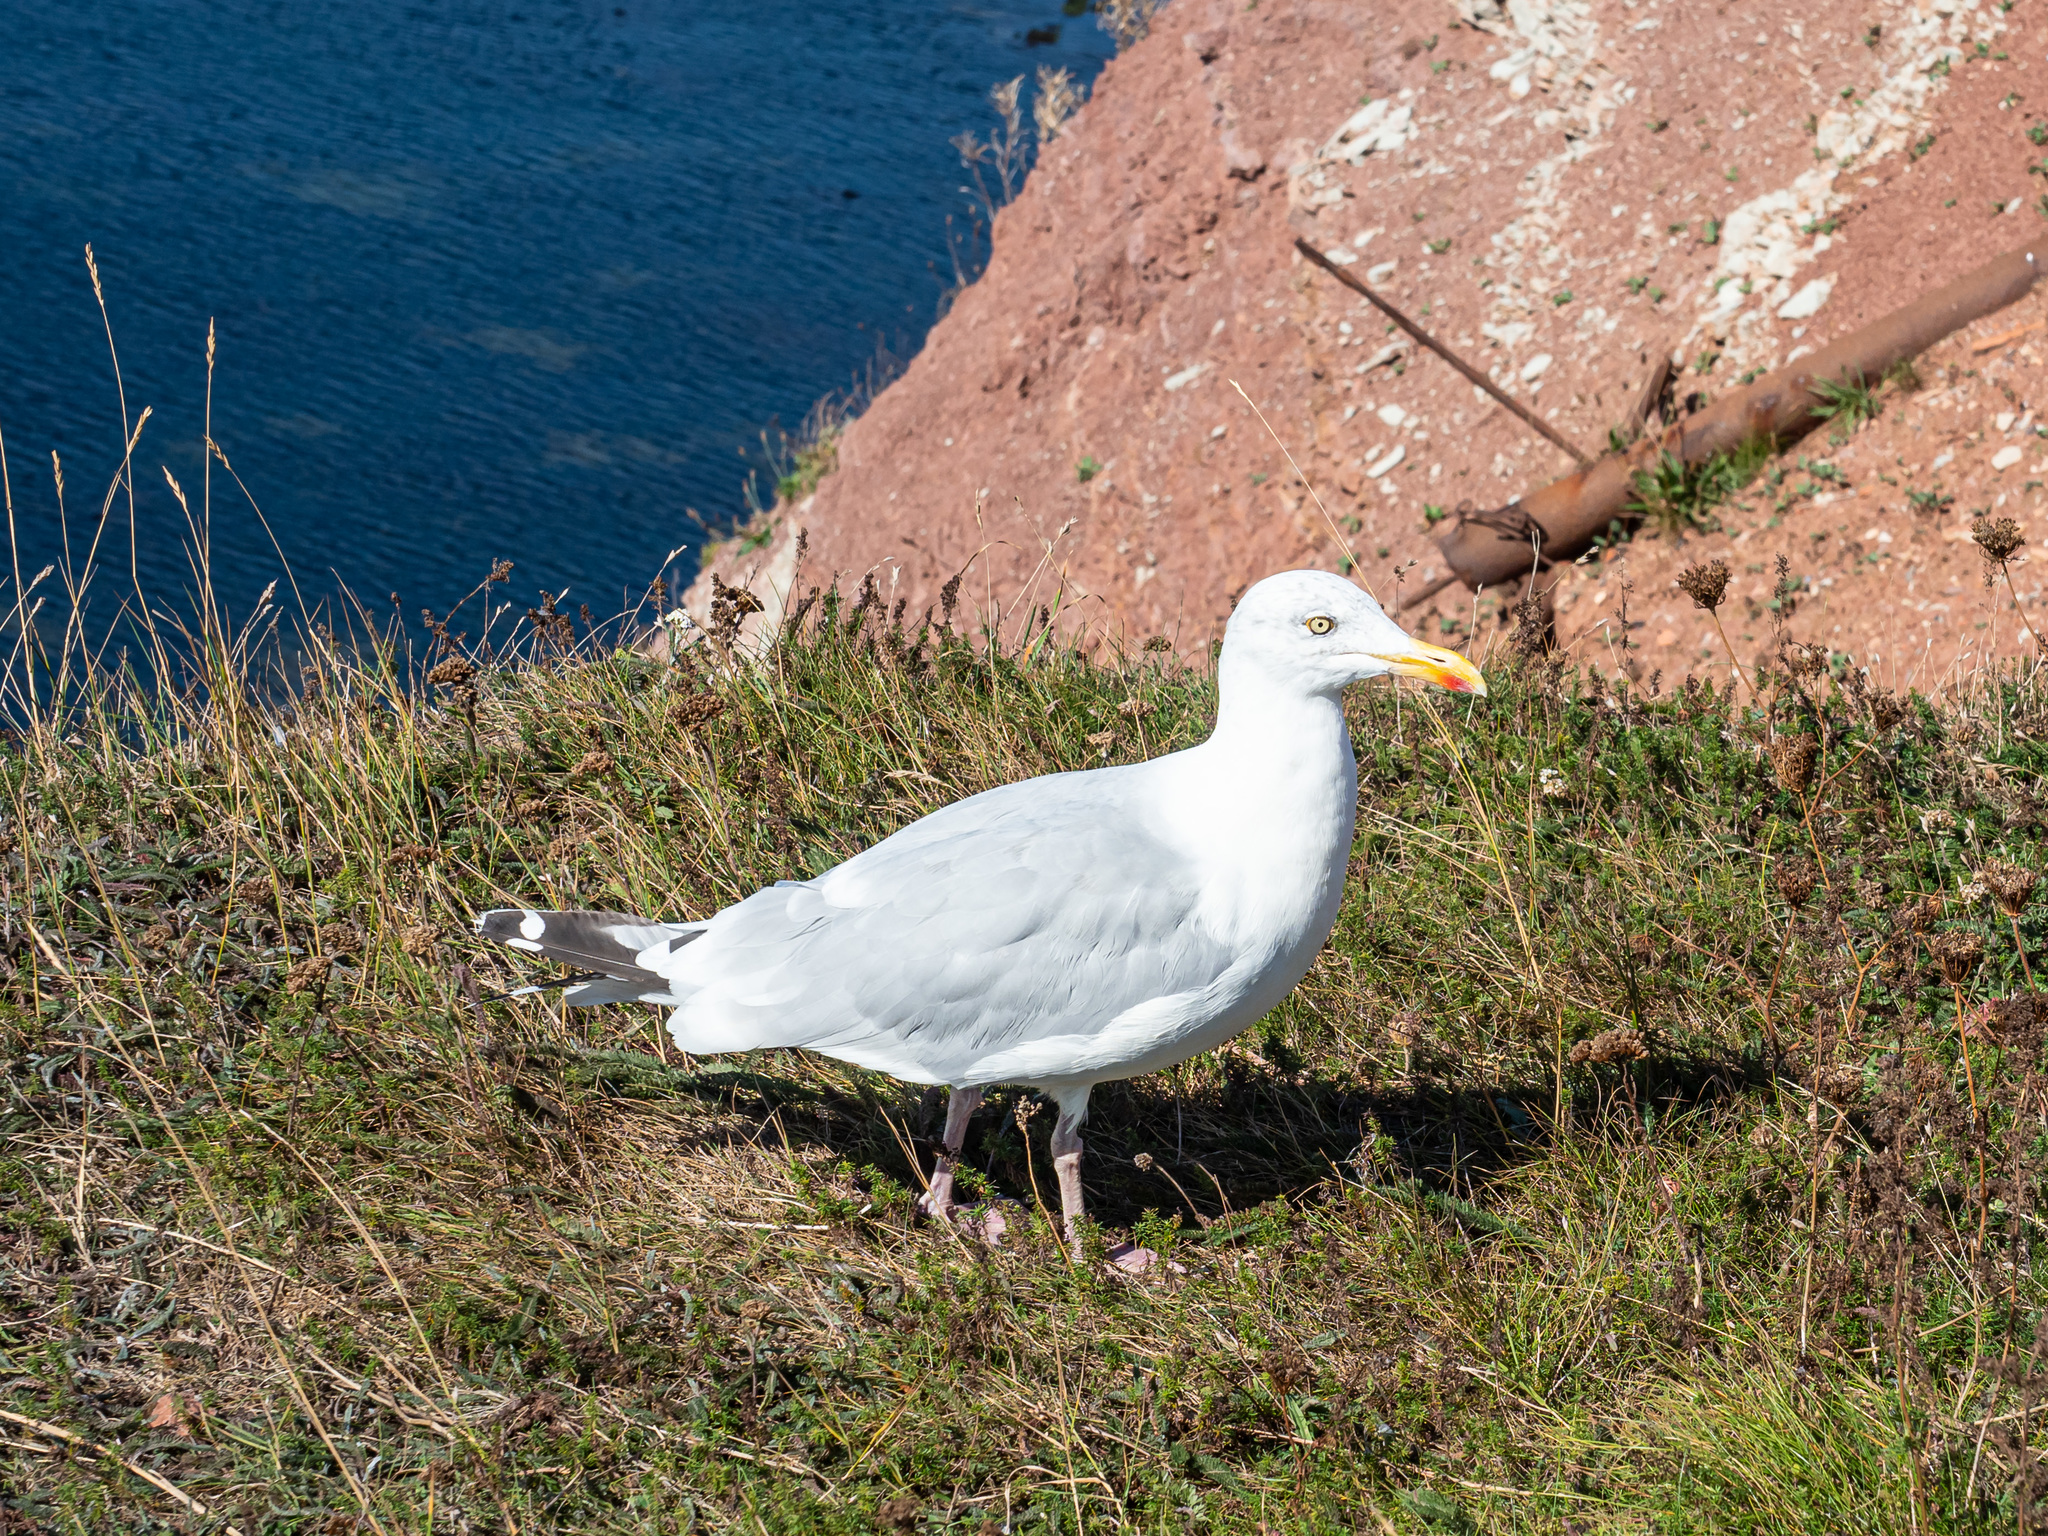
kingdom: Animalia
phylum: Chordata
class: Aves
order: Charadriiformes
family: Laridae
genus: Larus
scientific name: Larus argentatus
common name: Herring gull
